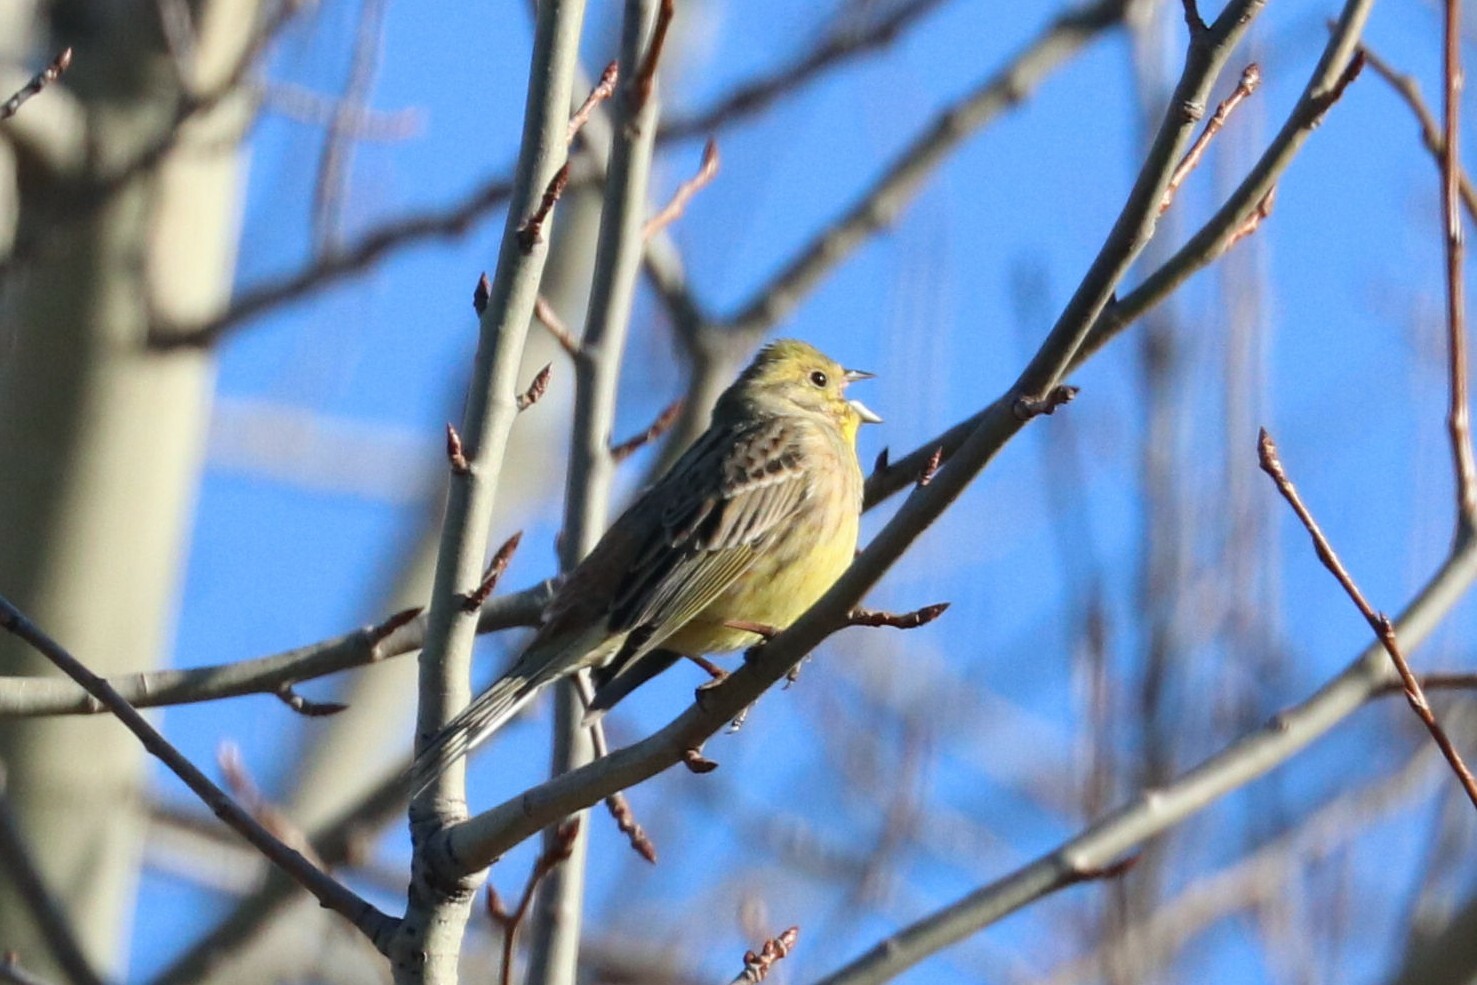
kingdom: Animalia
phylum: Chordata
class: Aves
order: Passeriformes
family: Emberizidae
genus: Emberiza
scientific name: Emberiza citrinella
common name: Yellowhammer
